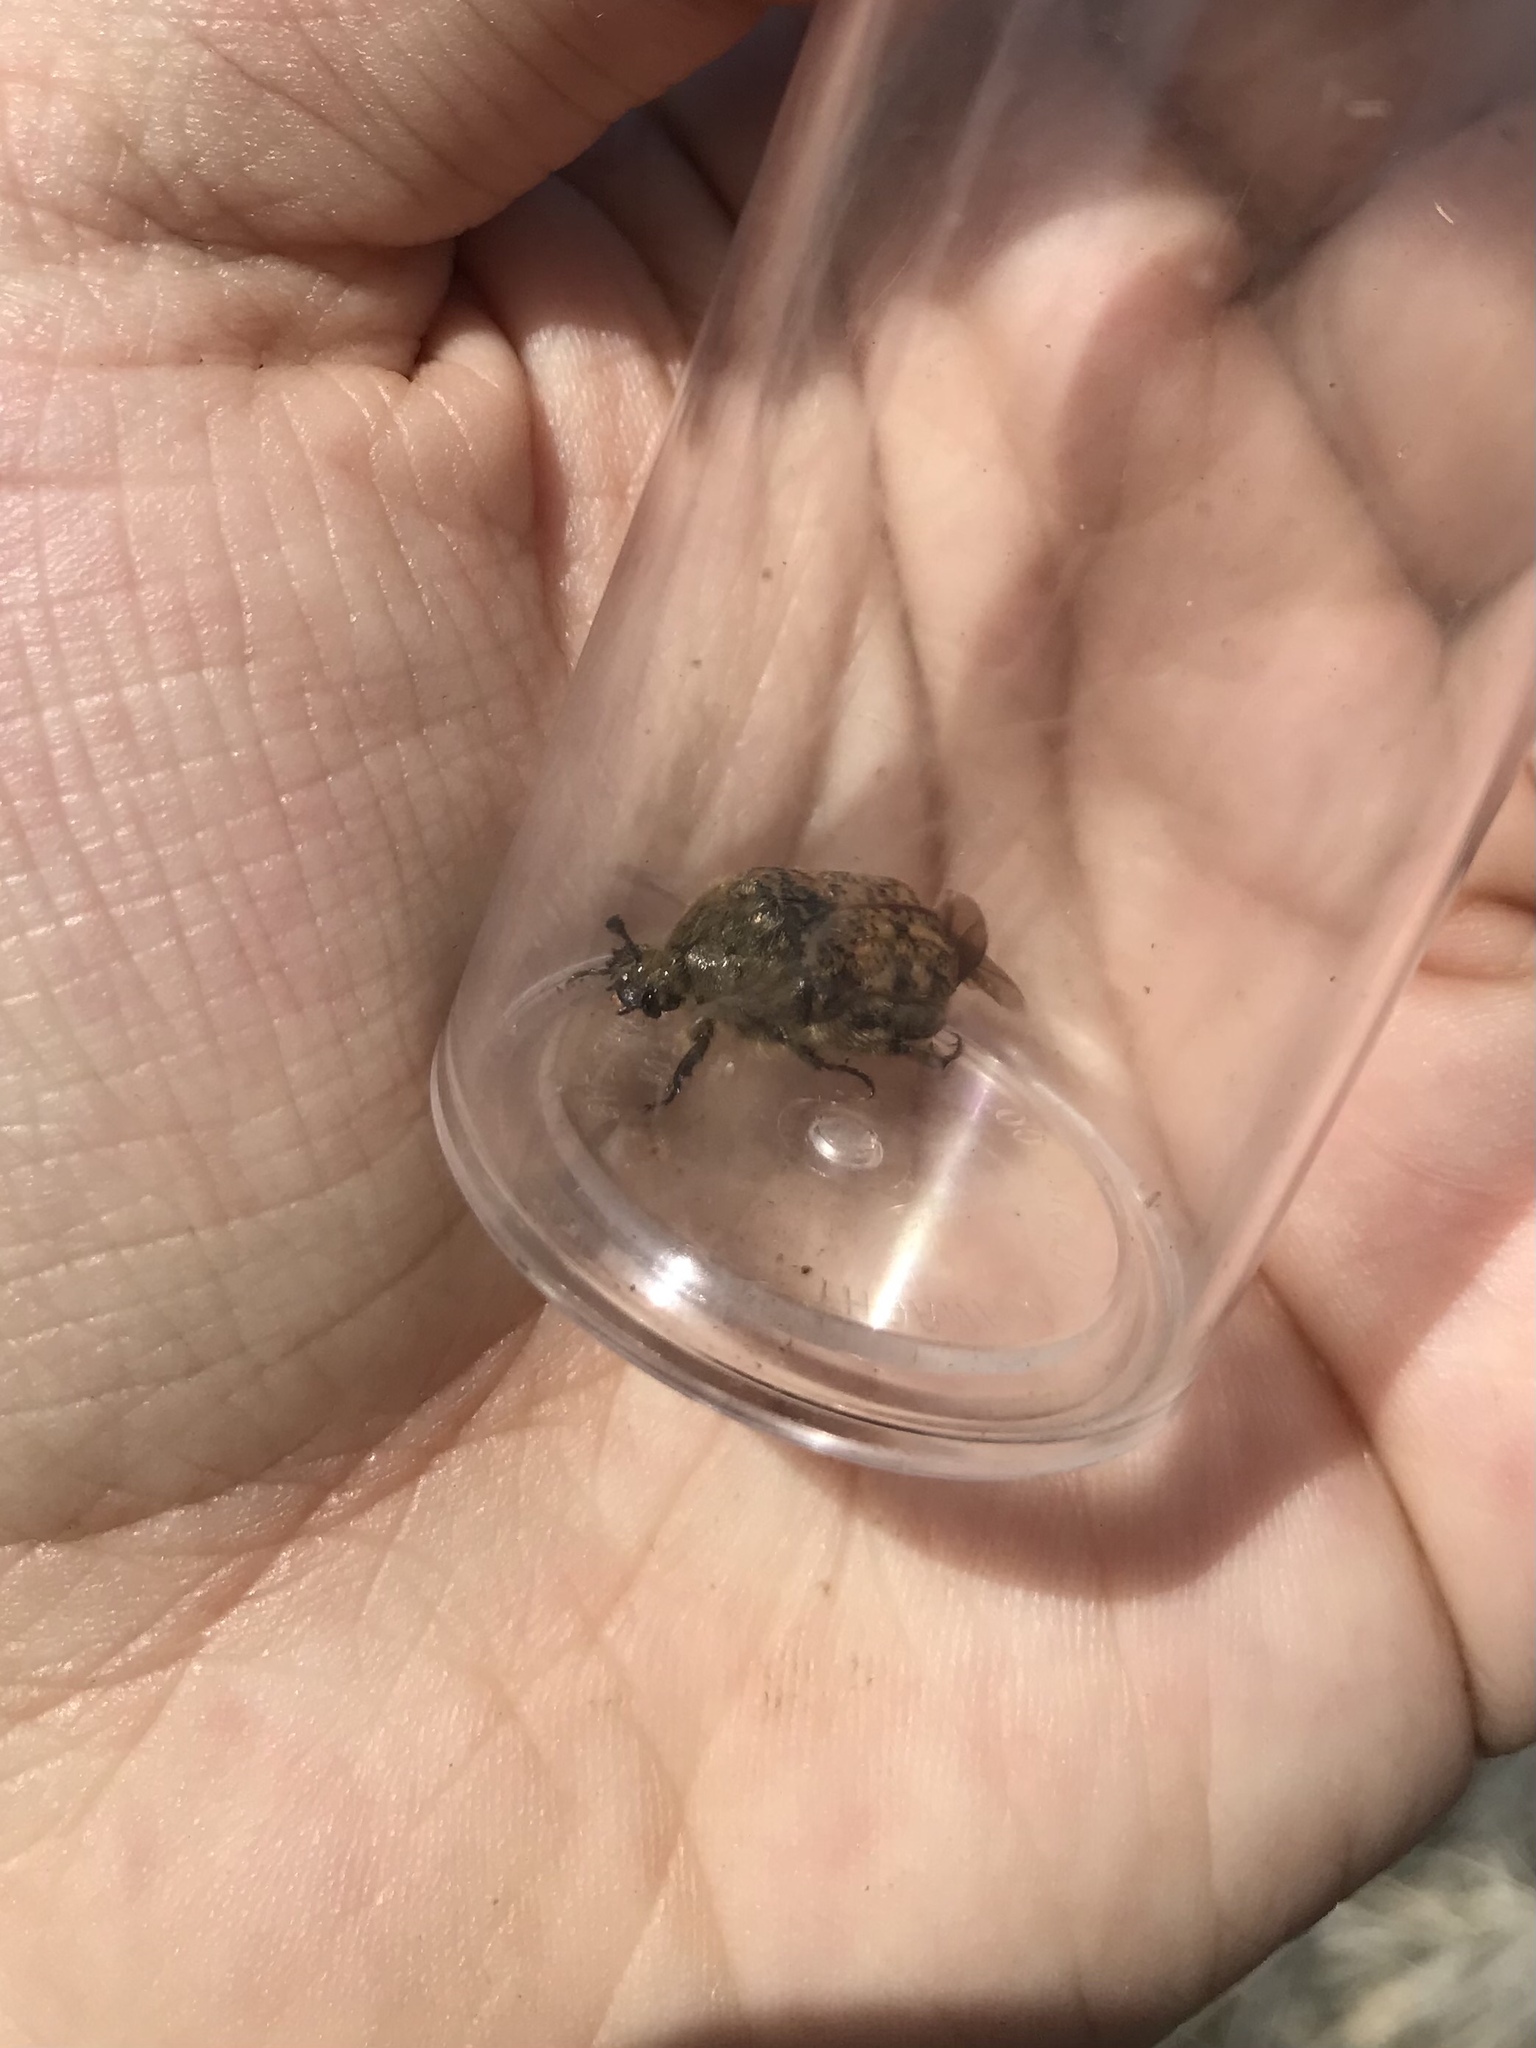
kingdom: Animalia
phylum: Arthropoda
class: Insecta
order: Coleoptera
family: Scarabaeidae
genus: Euphoria
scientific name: Euphoria inda
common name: Bumble flower beetle
